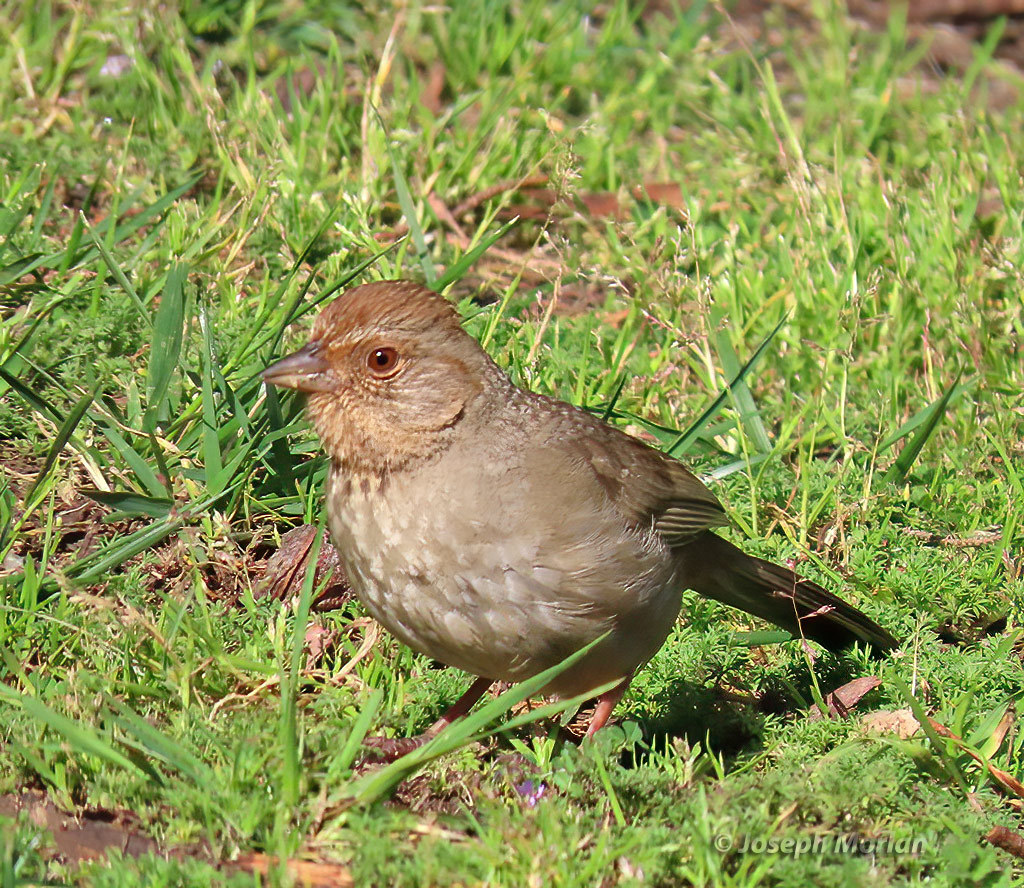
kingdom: Animalia
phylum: Chordata
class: Aves
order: Passeriformes
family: Passerellidae
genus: Melozone
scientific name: Melozone crissalis
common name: California towhee
